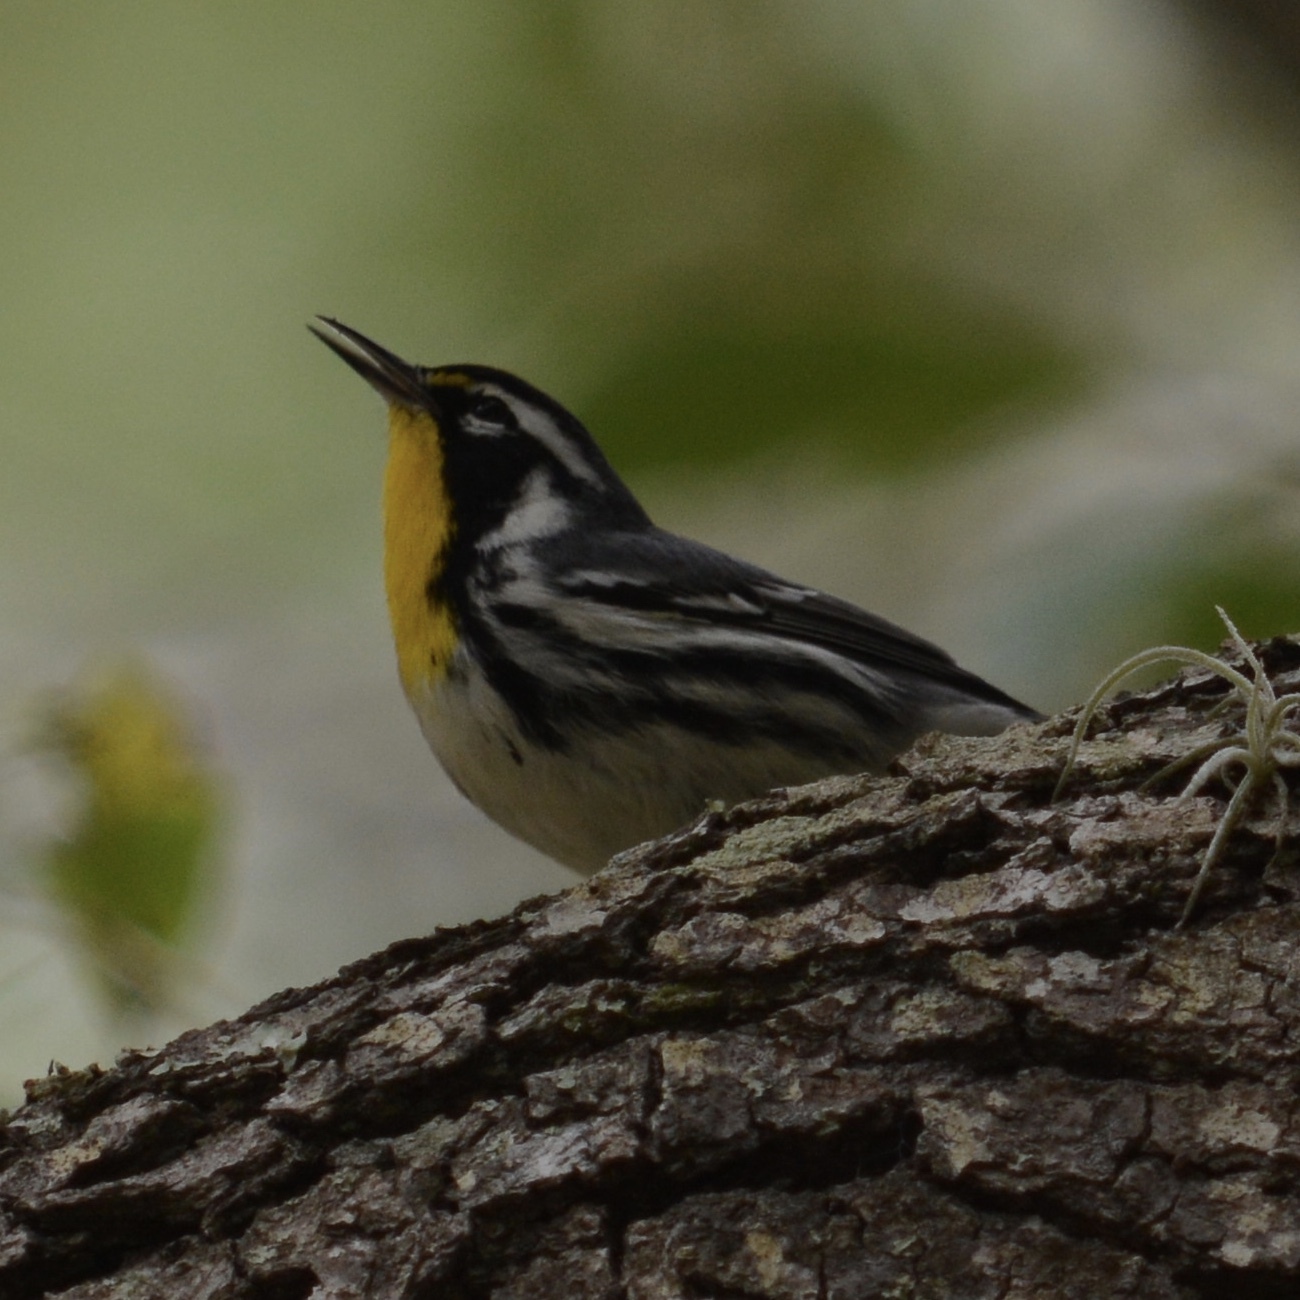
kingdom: Animalia
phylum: Chordata
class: Aves
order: Passeriformes
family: Parulidae
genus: Setophaga
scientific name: Setophaga dominica
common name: Yellow-throated warbler
